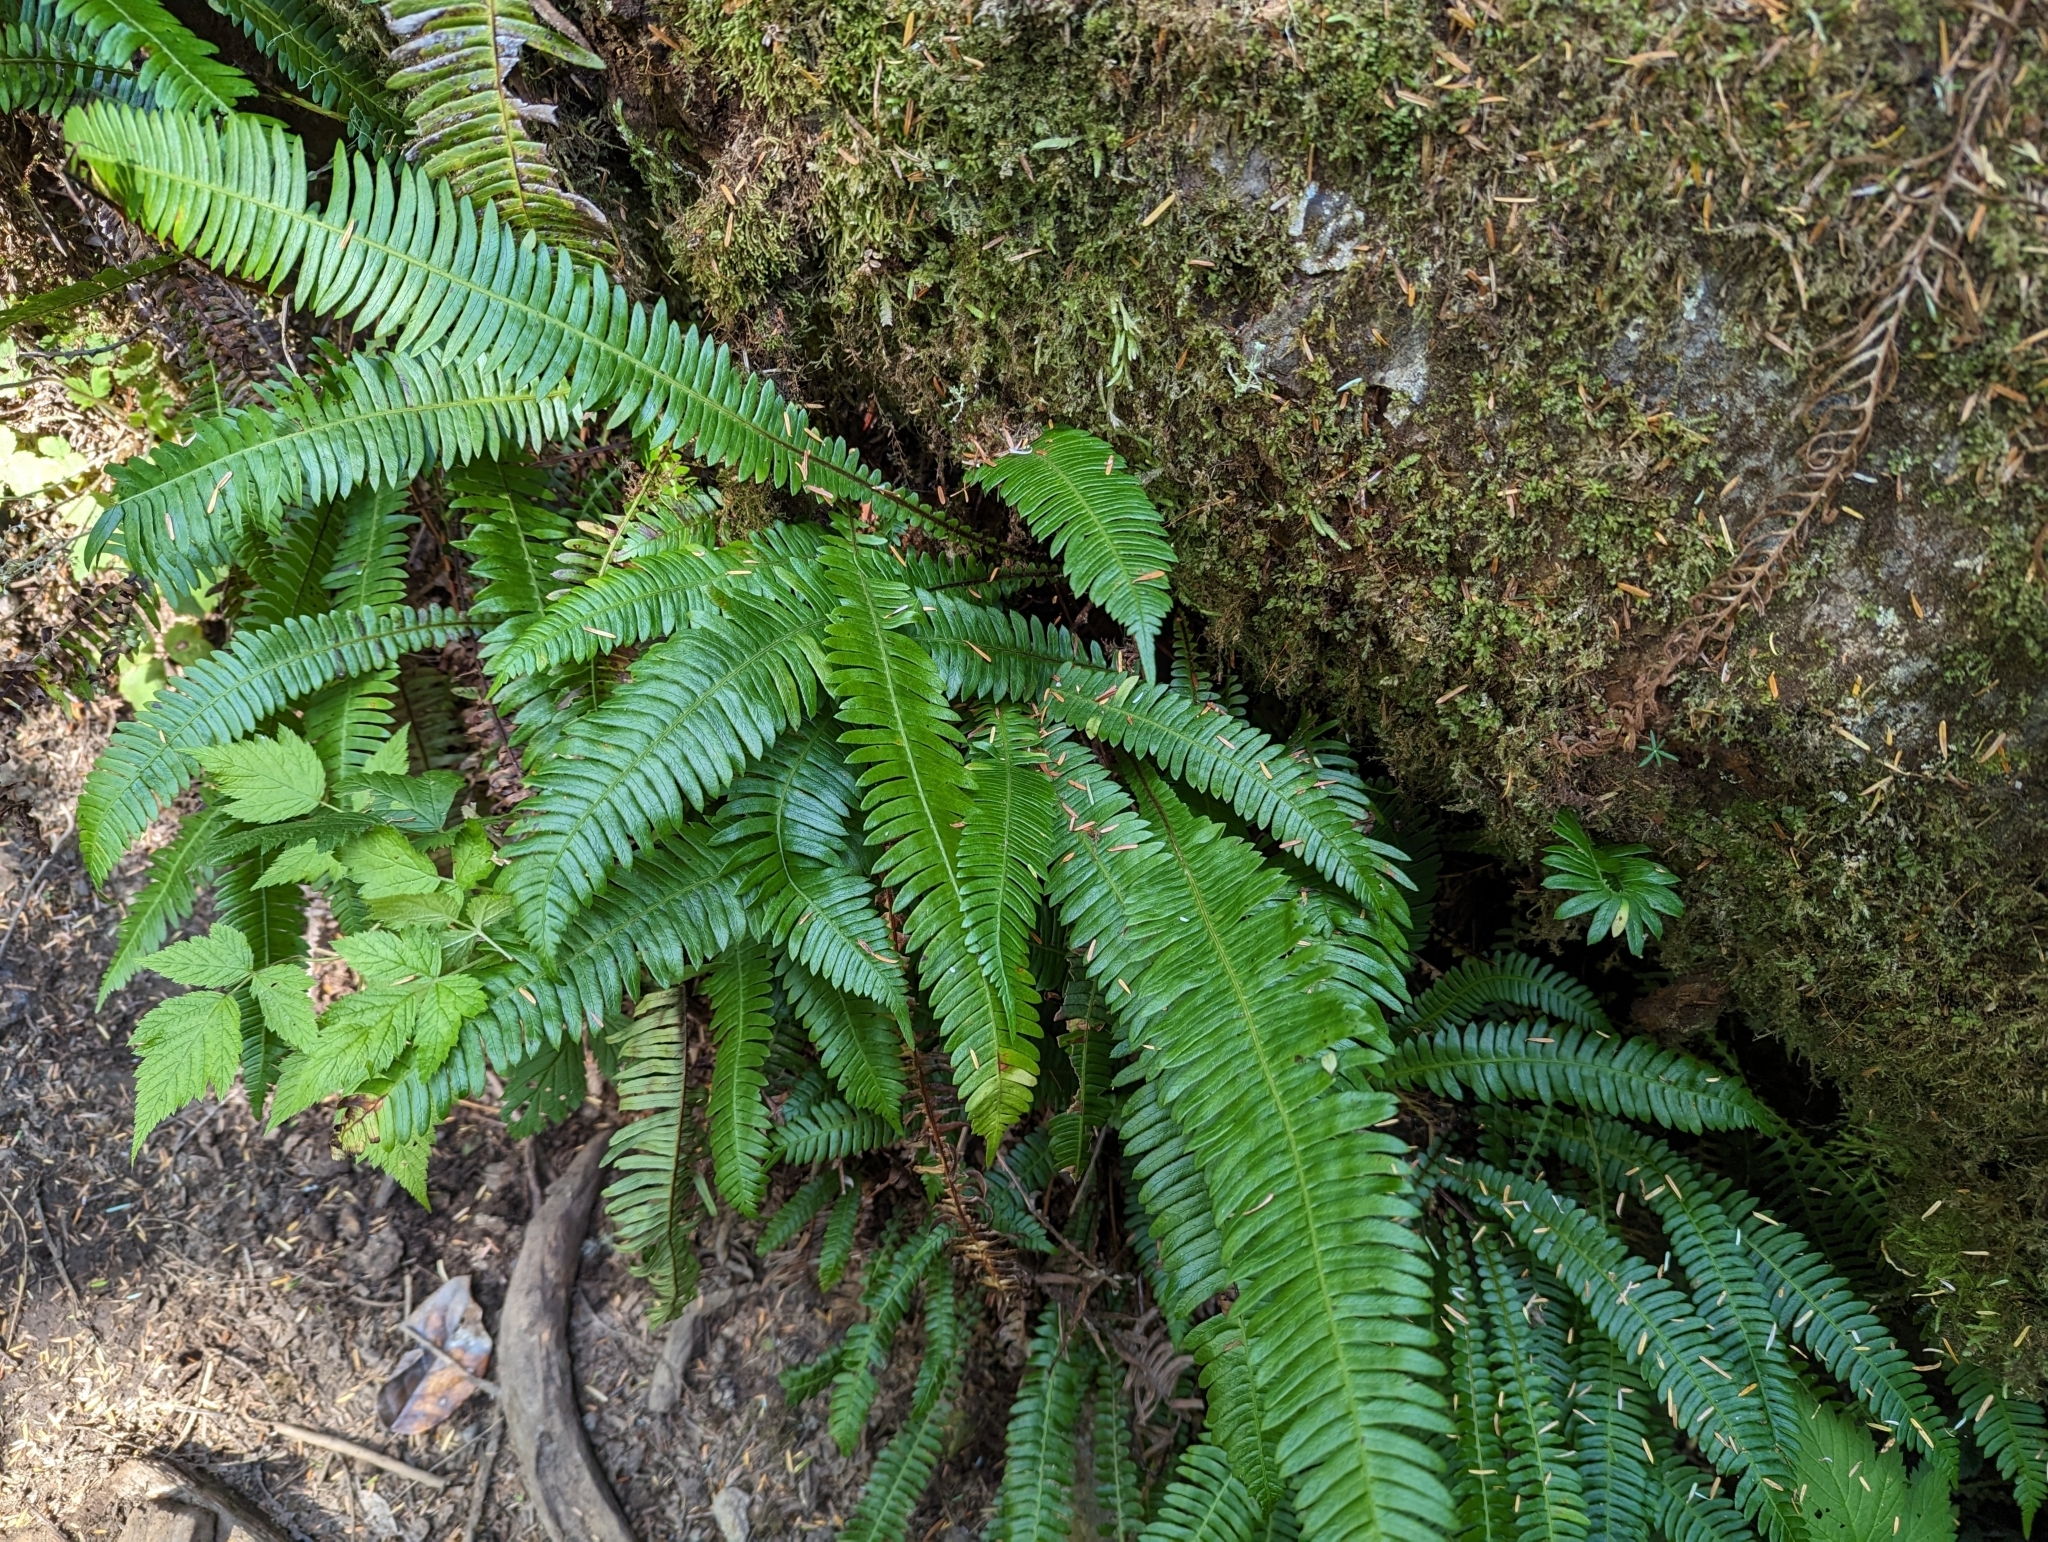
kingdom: Plantae
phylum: Tracheophyta
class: Polypodiopsida
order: Polypodiales
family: Blechnaceae
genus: Struthiopteris
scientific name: Struthiopteris spicant
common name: Deer fern
